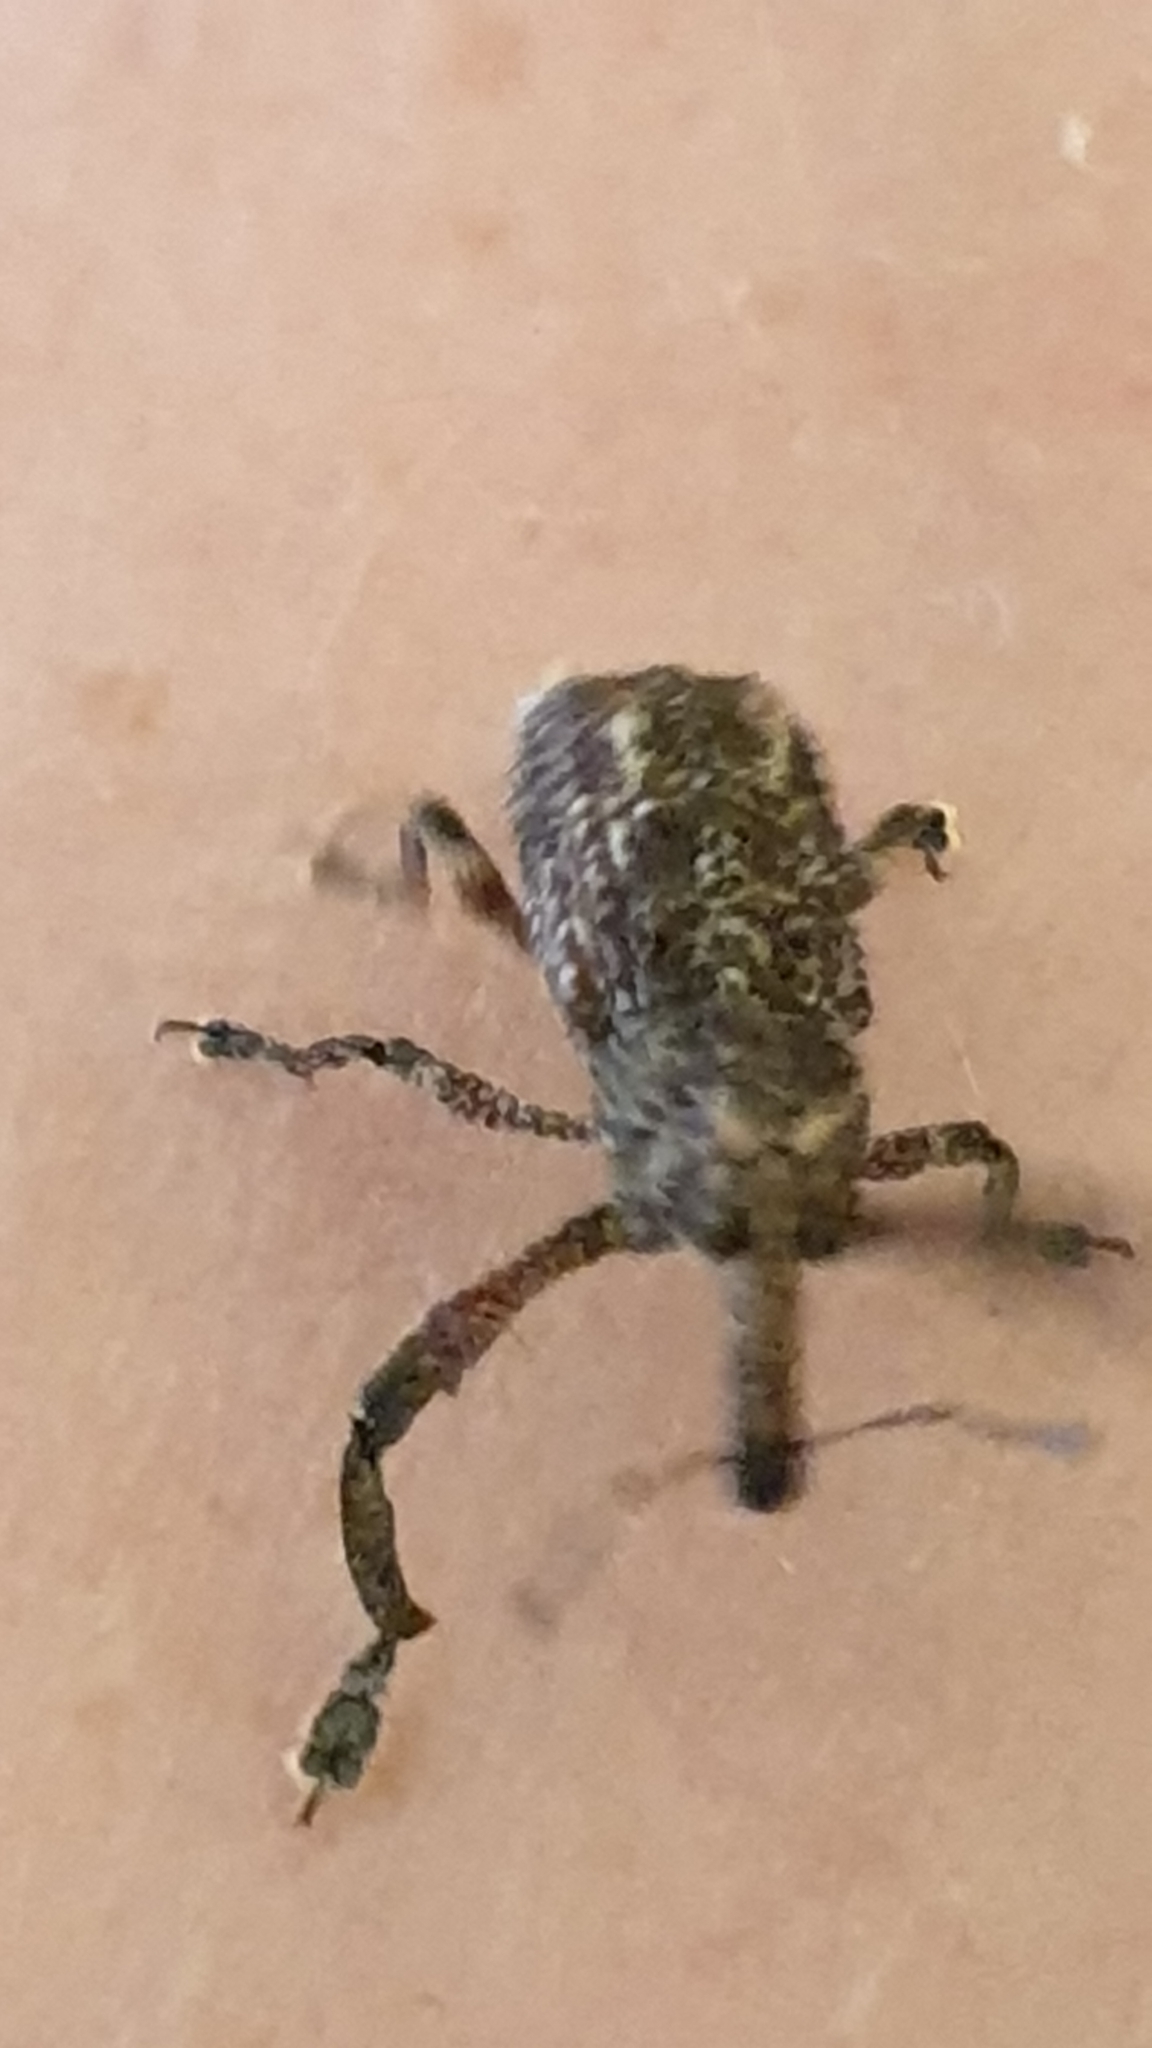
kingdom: Animalia
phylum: Arthropoda
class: Insecta
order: Coleoptera
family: Curculionidae
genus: Orthorhinus
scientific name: Orthorhinus cylindrirostris
